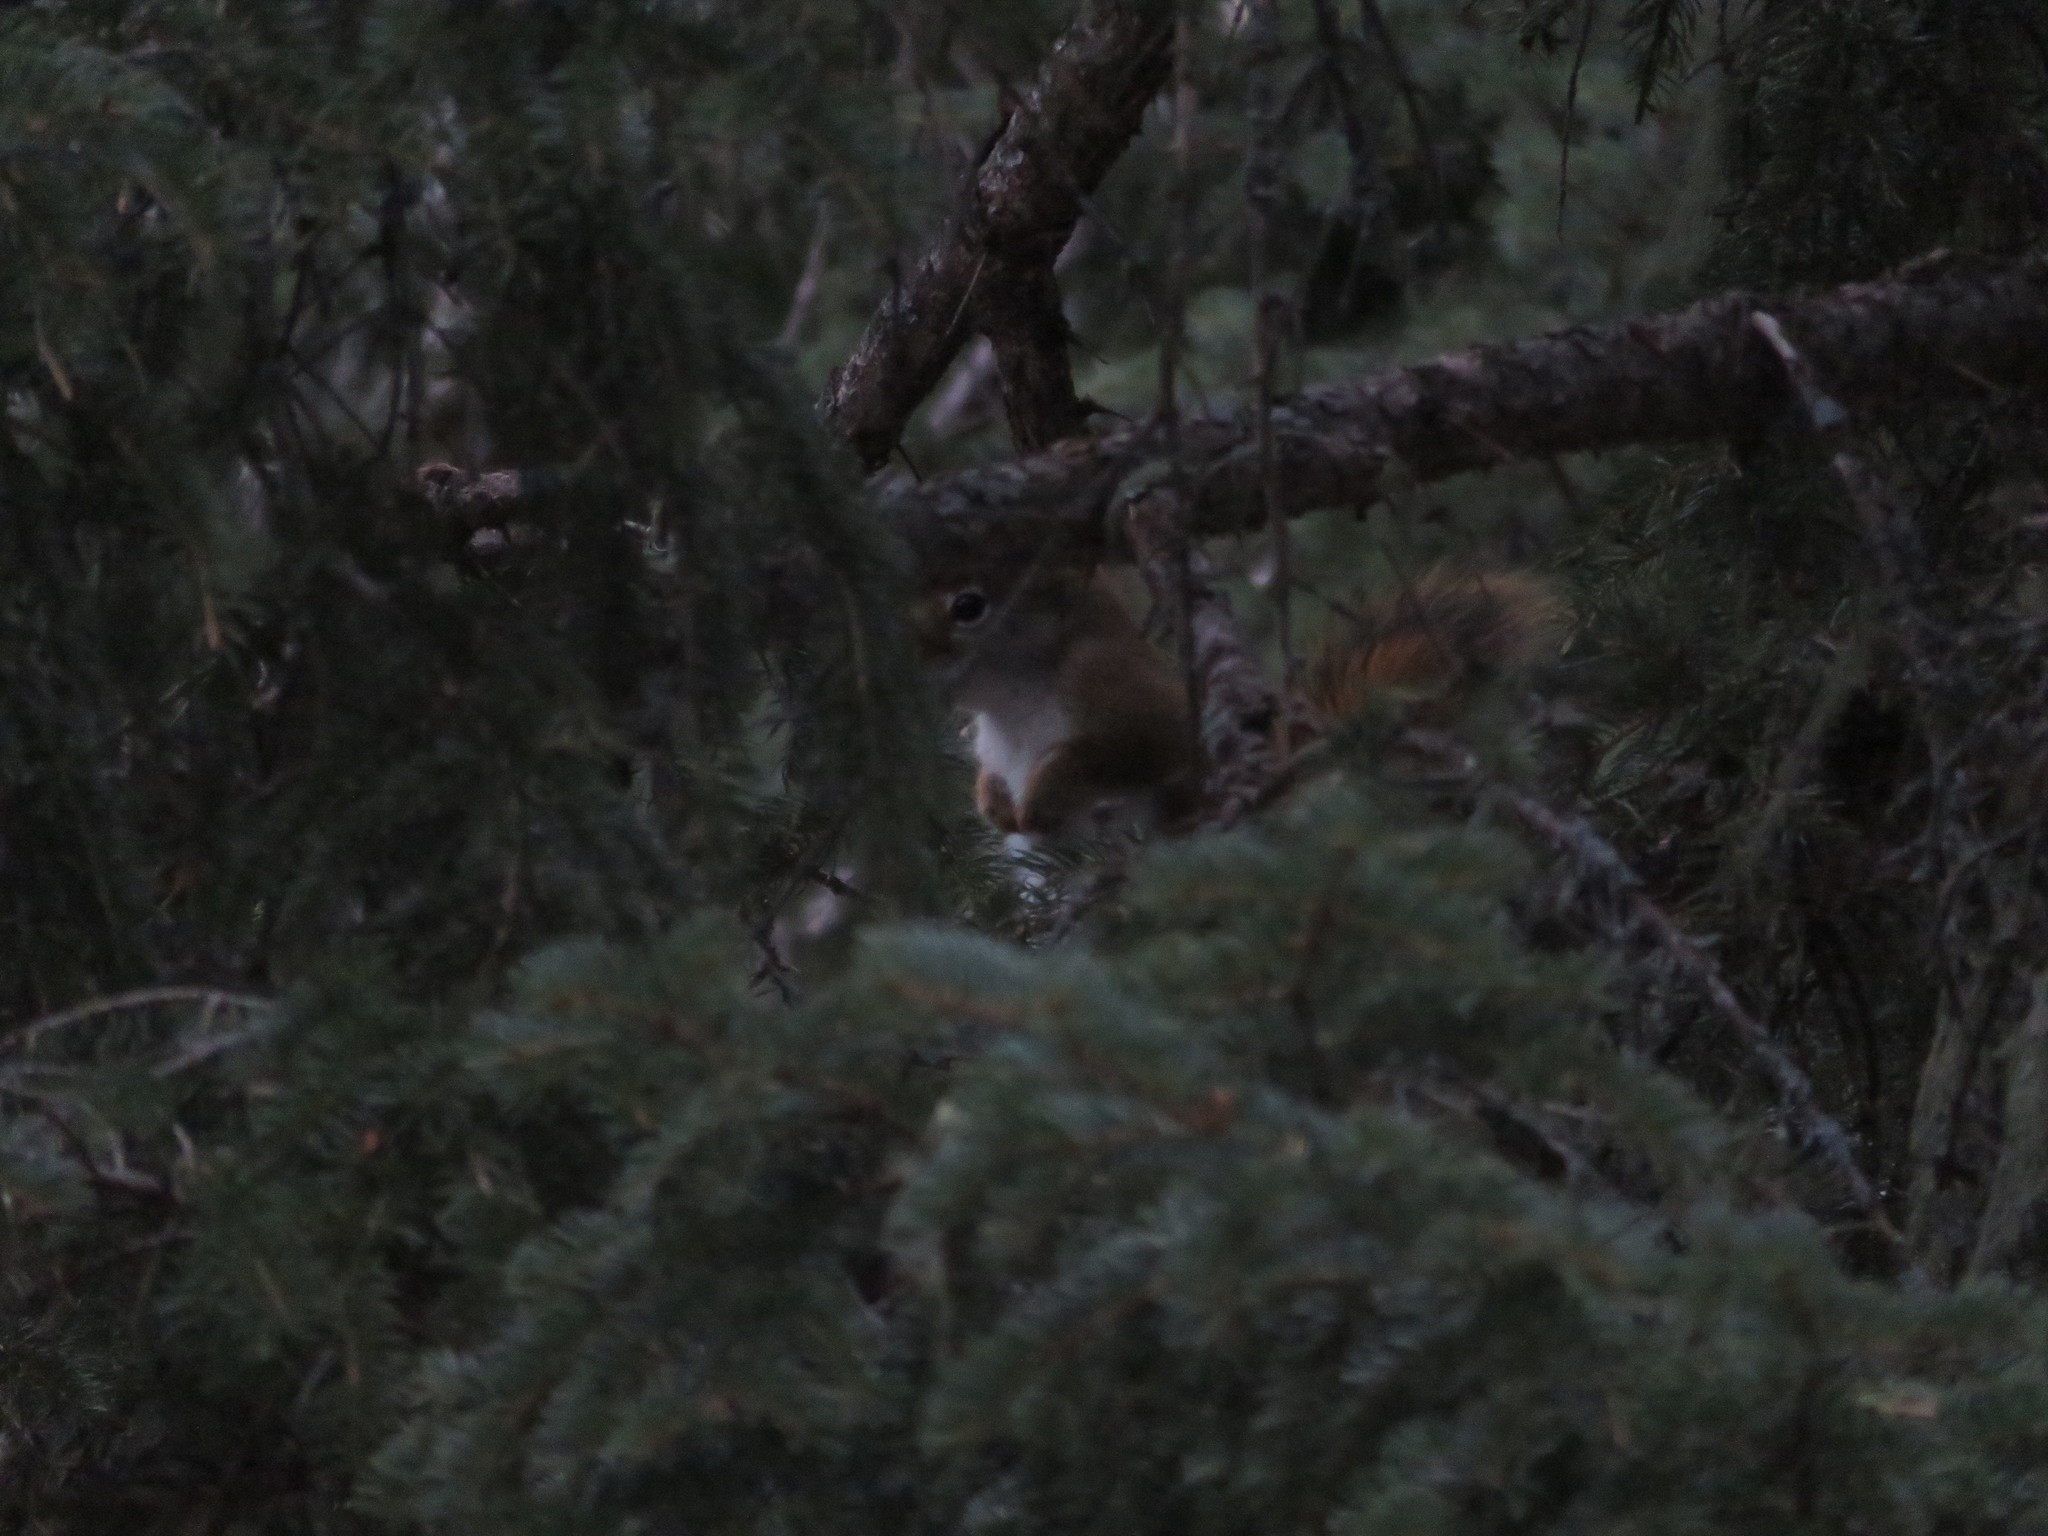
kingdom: Animalia
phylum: Chordata
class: Mammalia
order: Rodentia
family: Sciuridae
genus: Tamiasciurus
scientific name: Tamiasciurus hudsonicus
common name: Red squirrel
